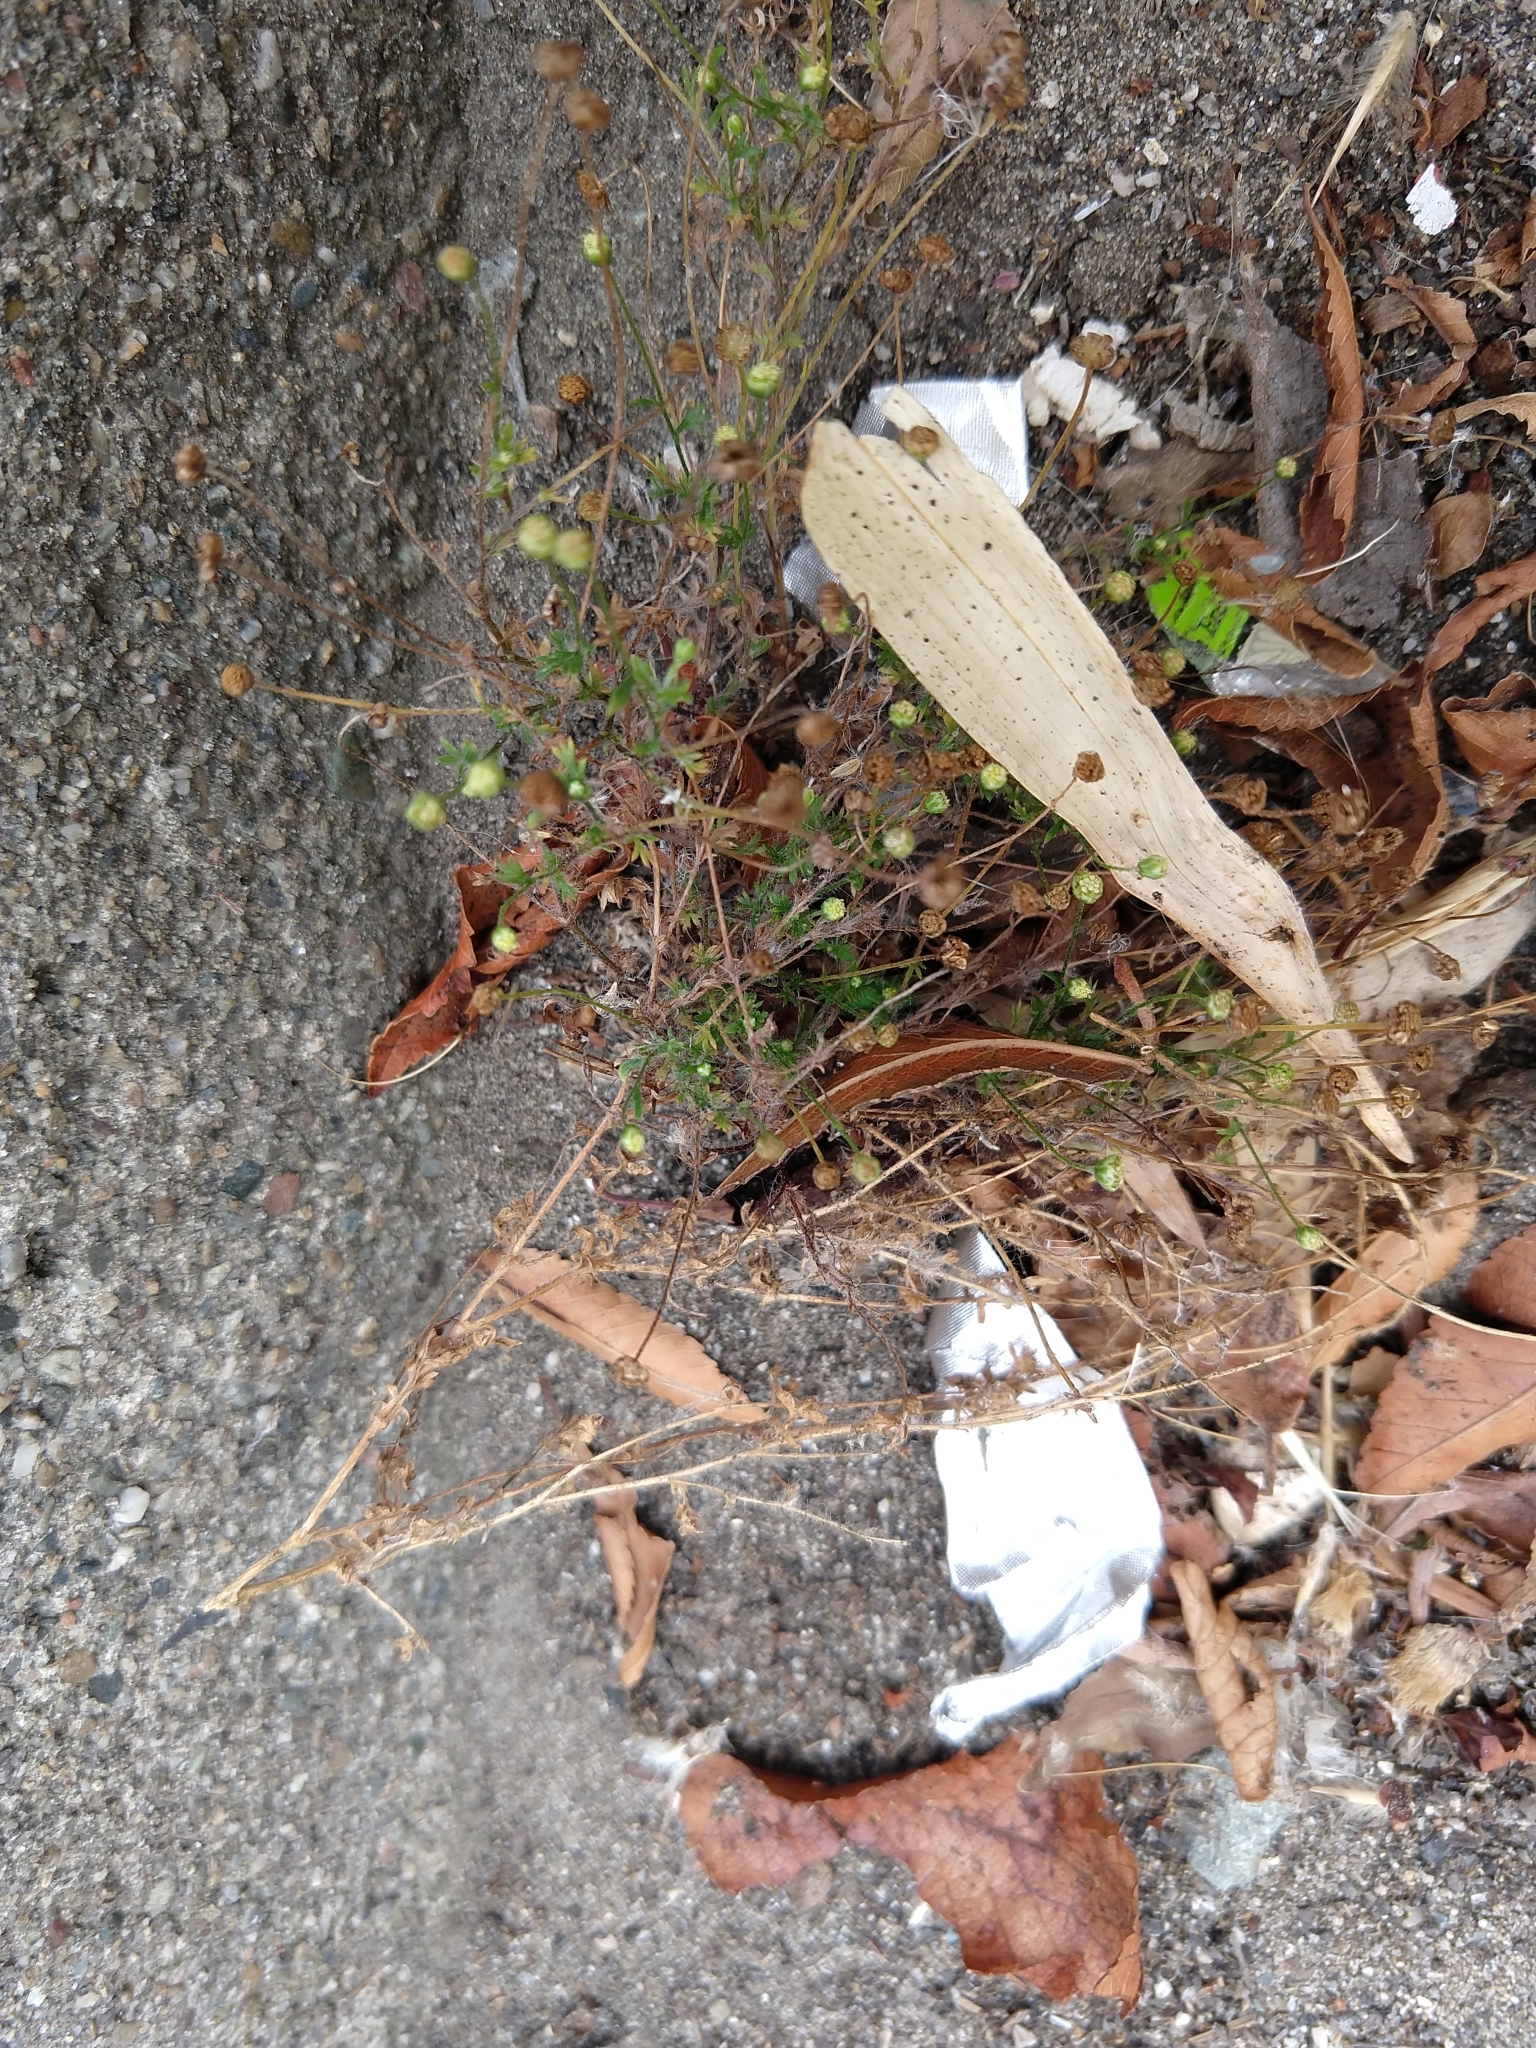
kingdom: Plantae
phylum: Tracheophyta
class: Magnoliopsida
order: Asterales
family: Asteraceae
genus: Cotula
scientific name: Cotula australis
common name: Australian waterbuttons
